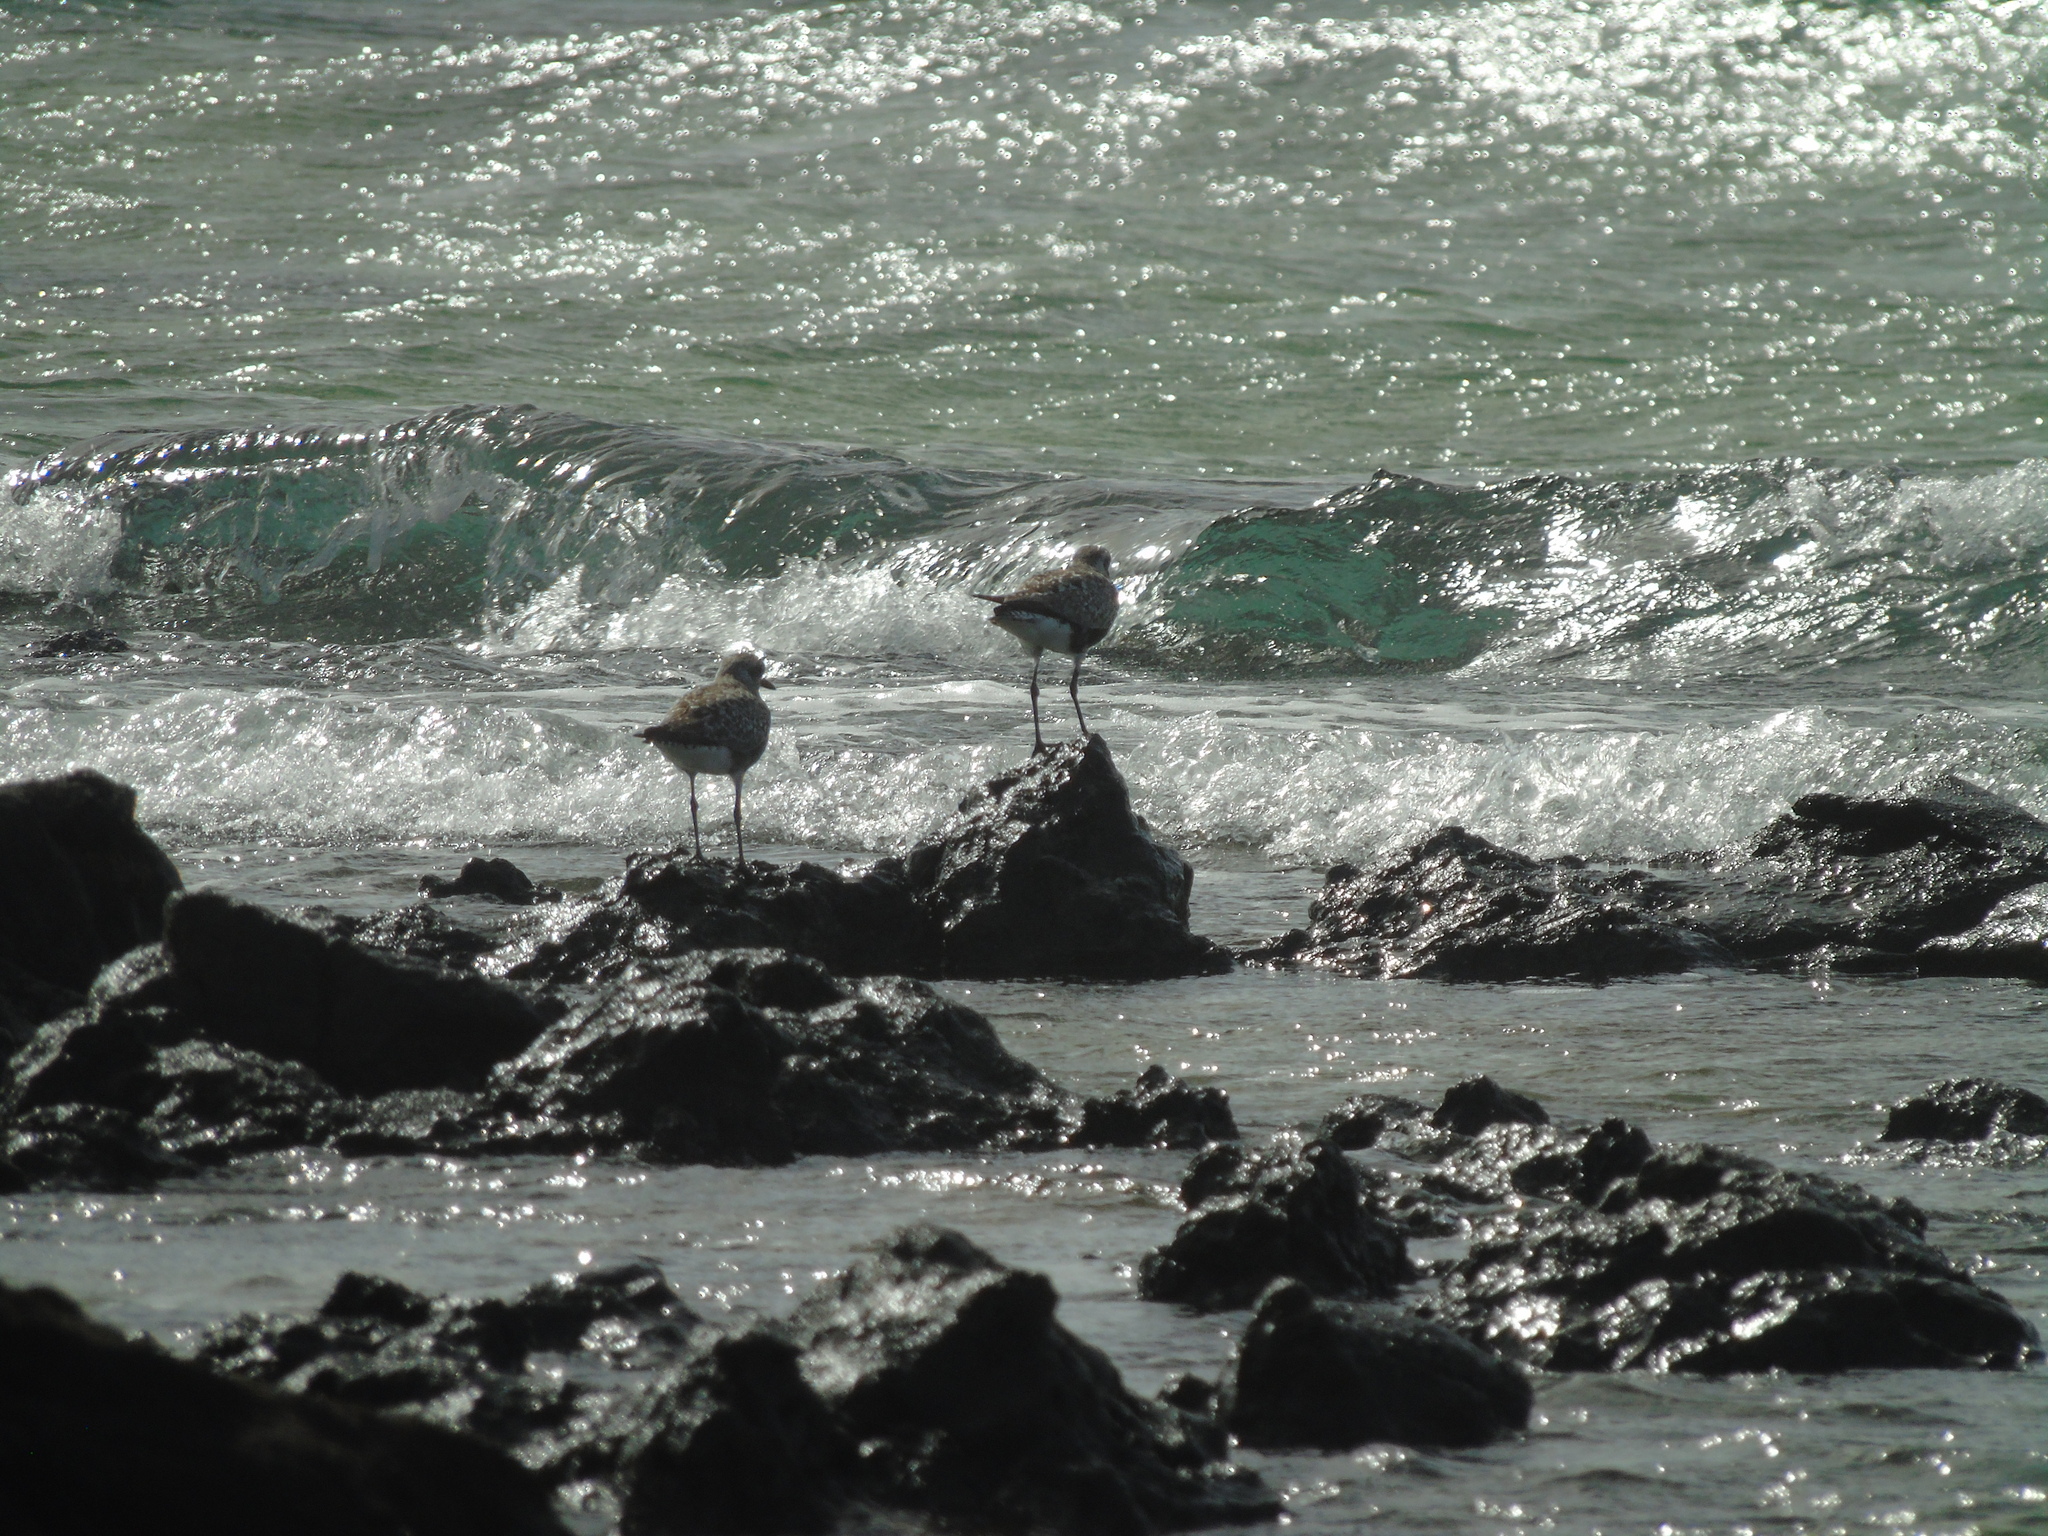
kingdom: Animalia
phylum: Chordata
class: Aves
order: Charadriiformes
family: Scolopacidae
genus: Limosa
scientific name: Limosa lapponica
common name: Bar-tailed godwit
